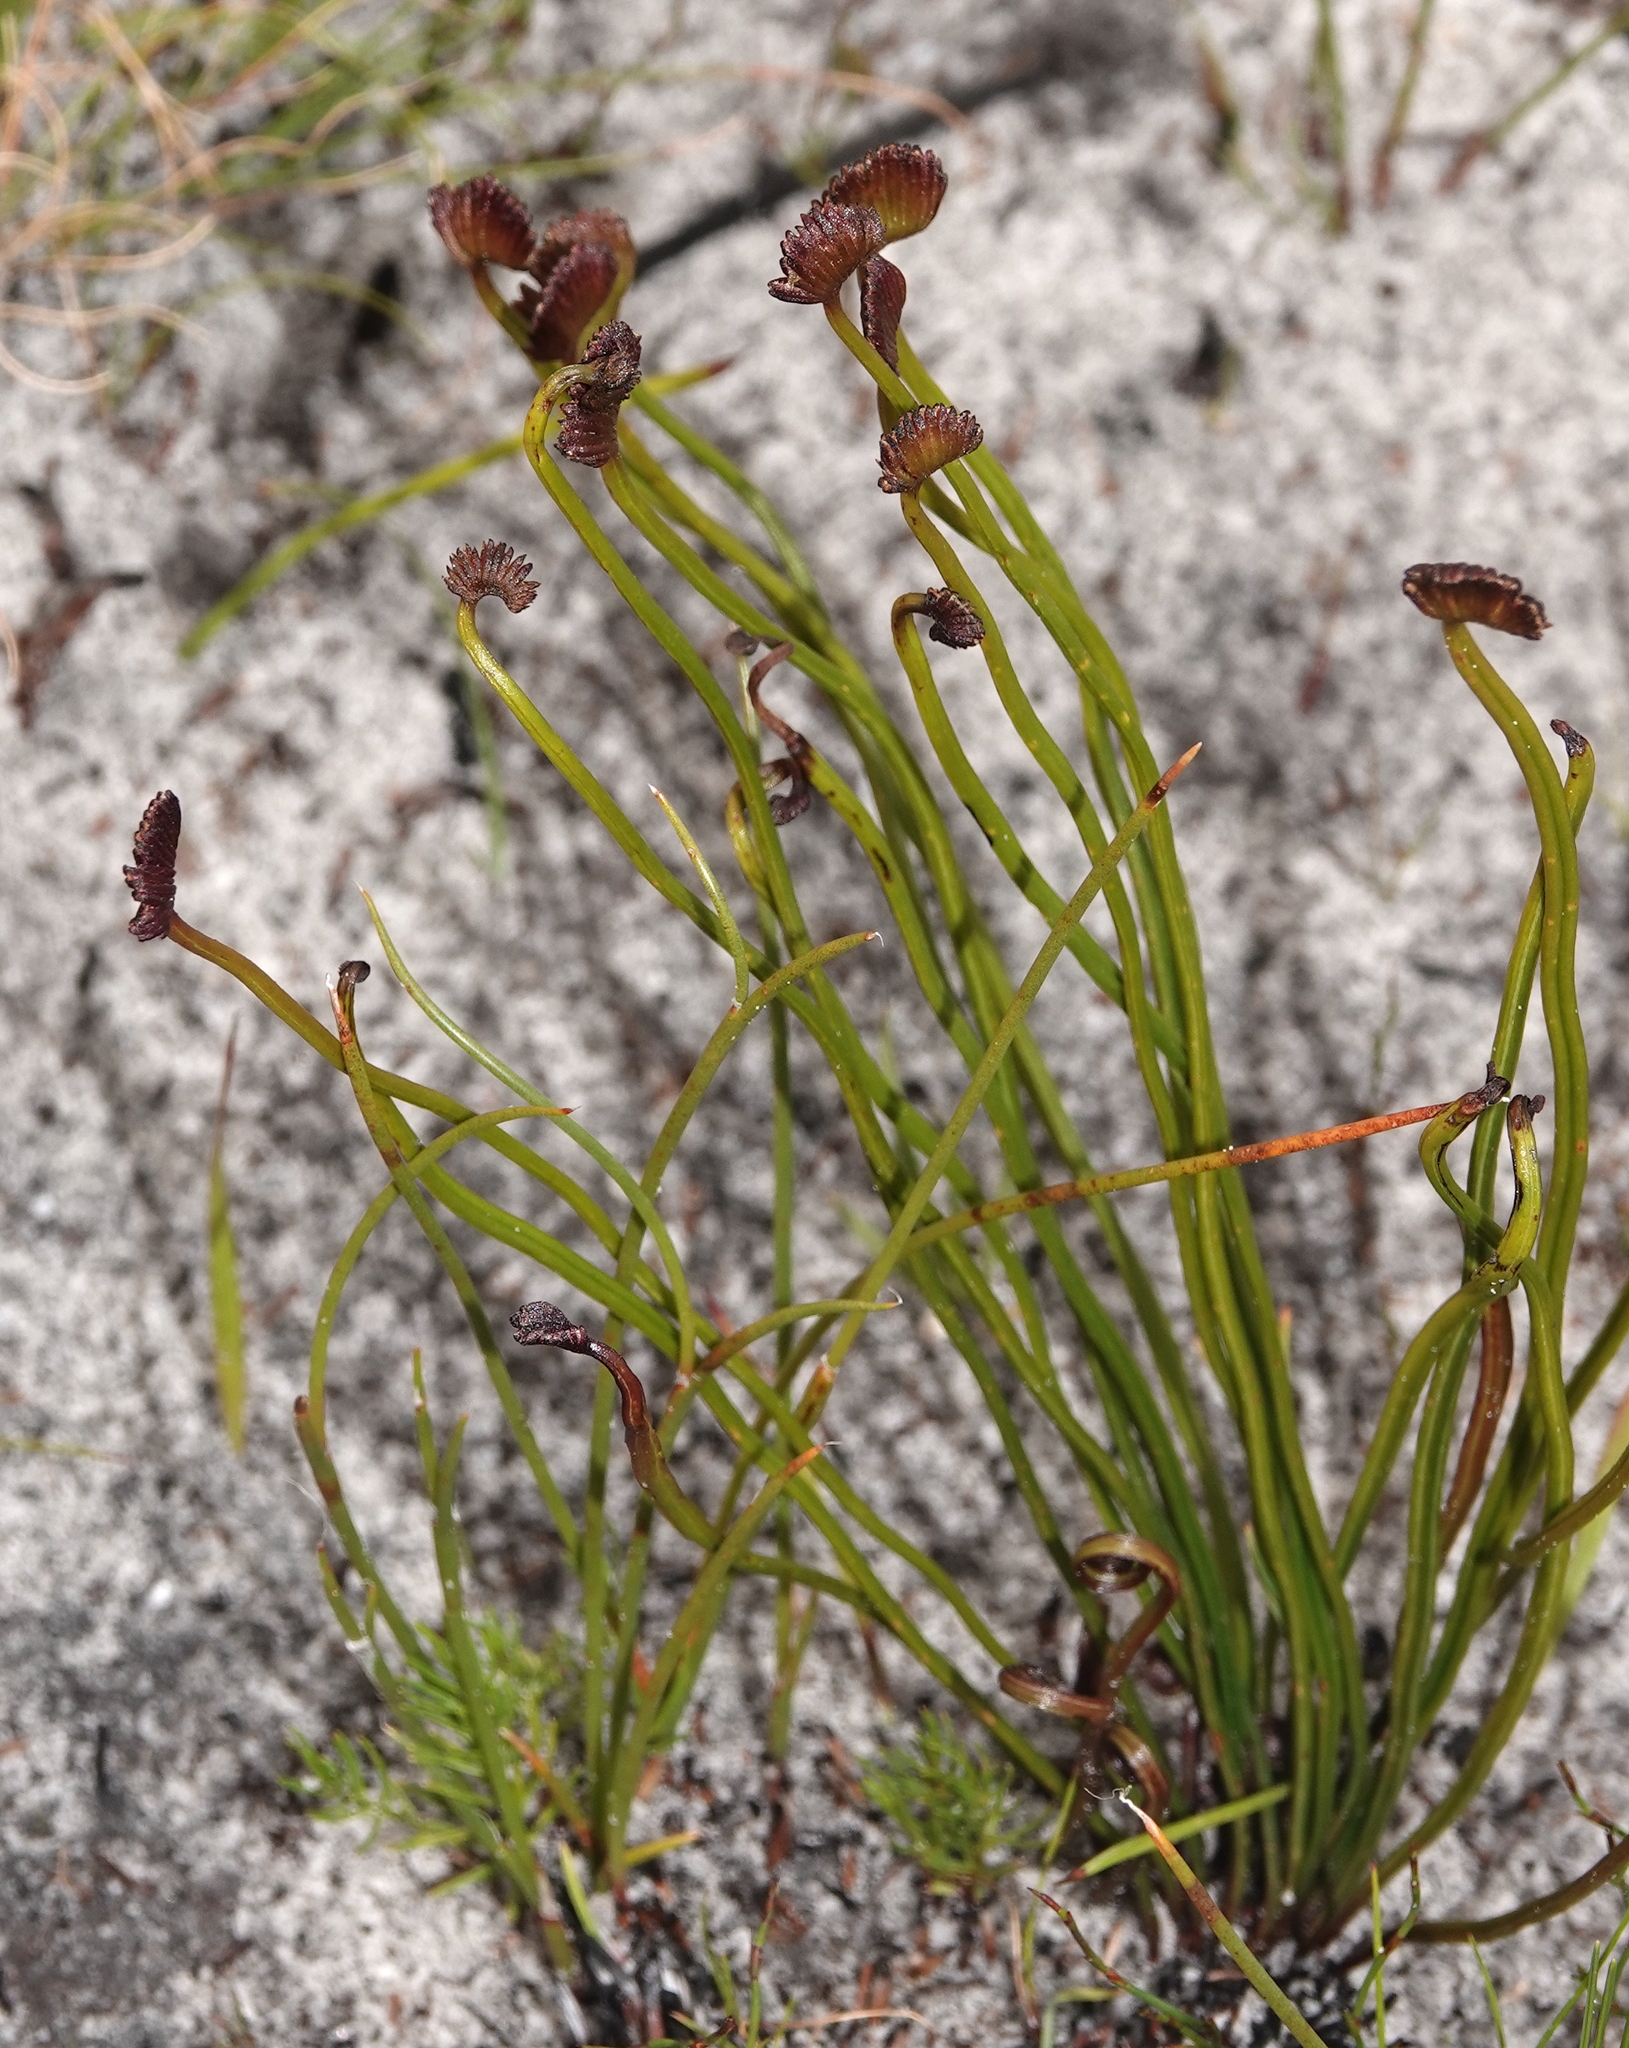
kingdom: Plantae
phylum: Tracheophyta
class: Polypodiopsida
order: Schizaeales
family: Schizaeaceae
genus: Schizaea
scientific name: Schizaea pectinata
